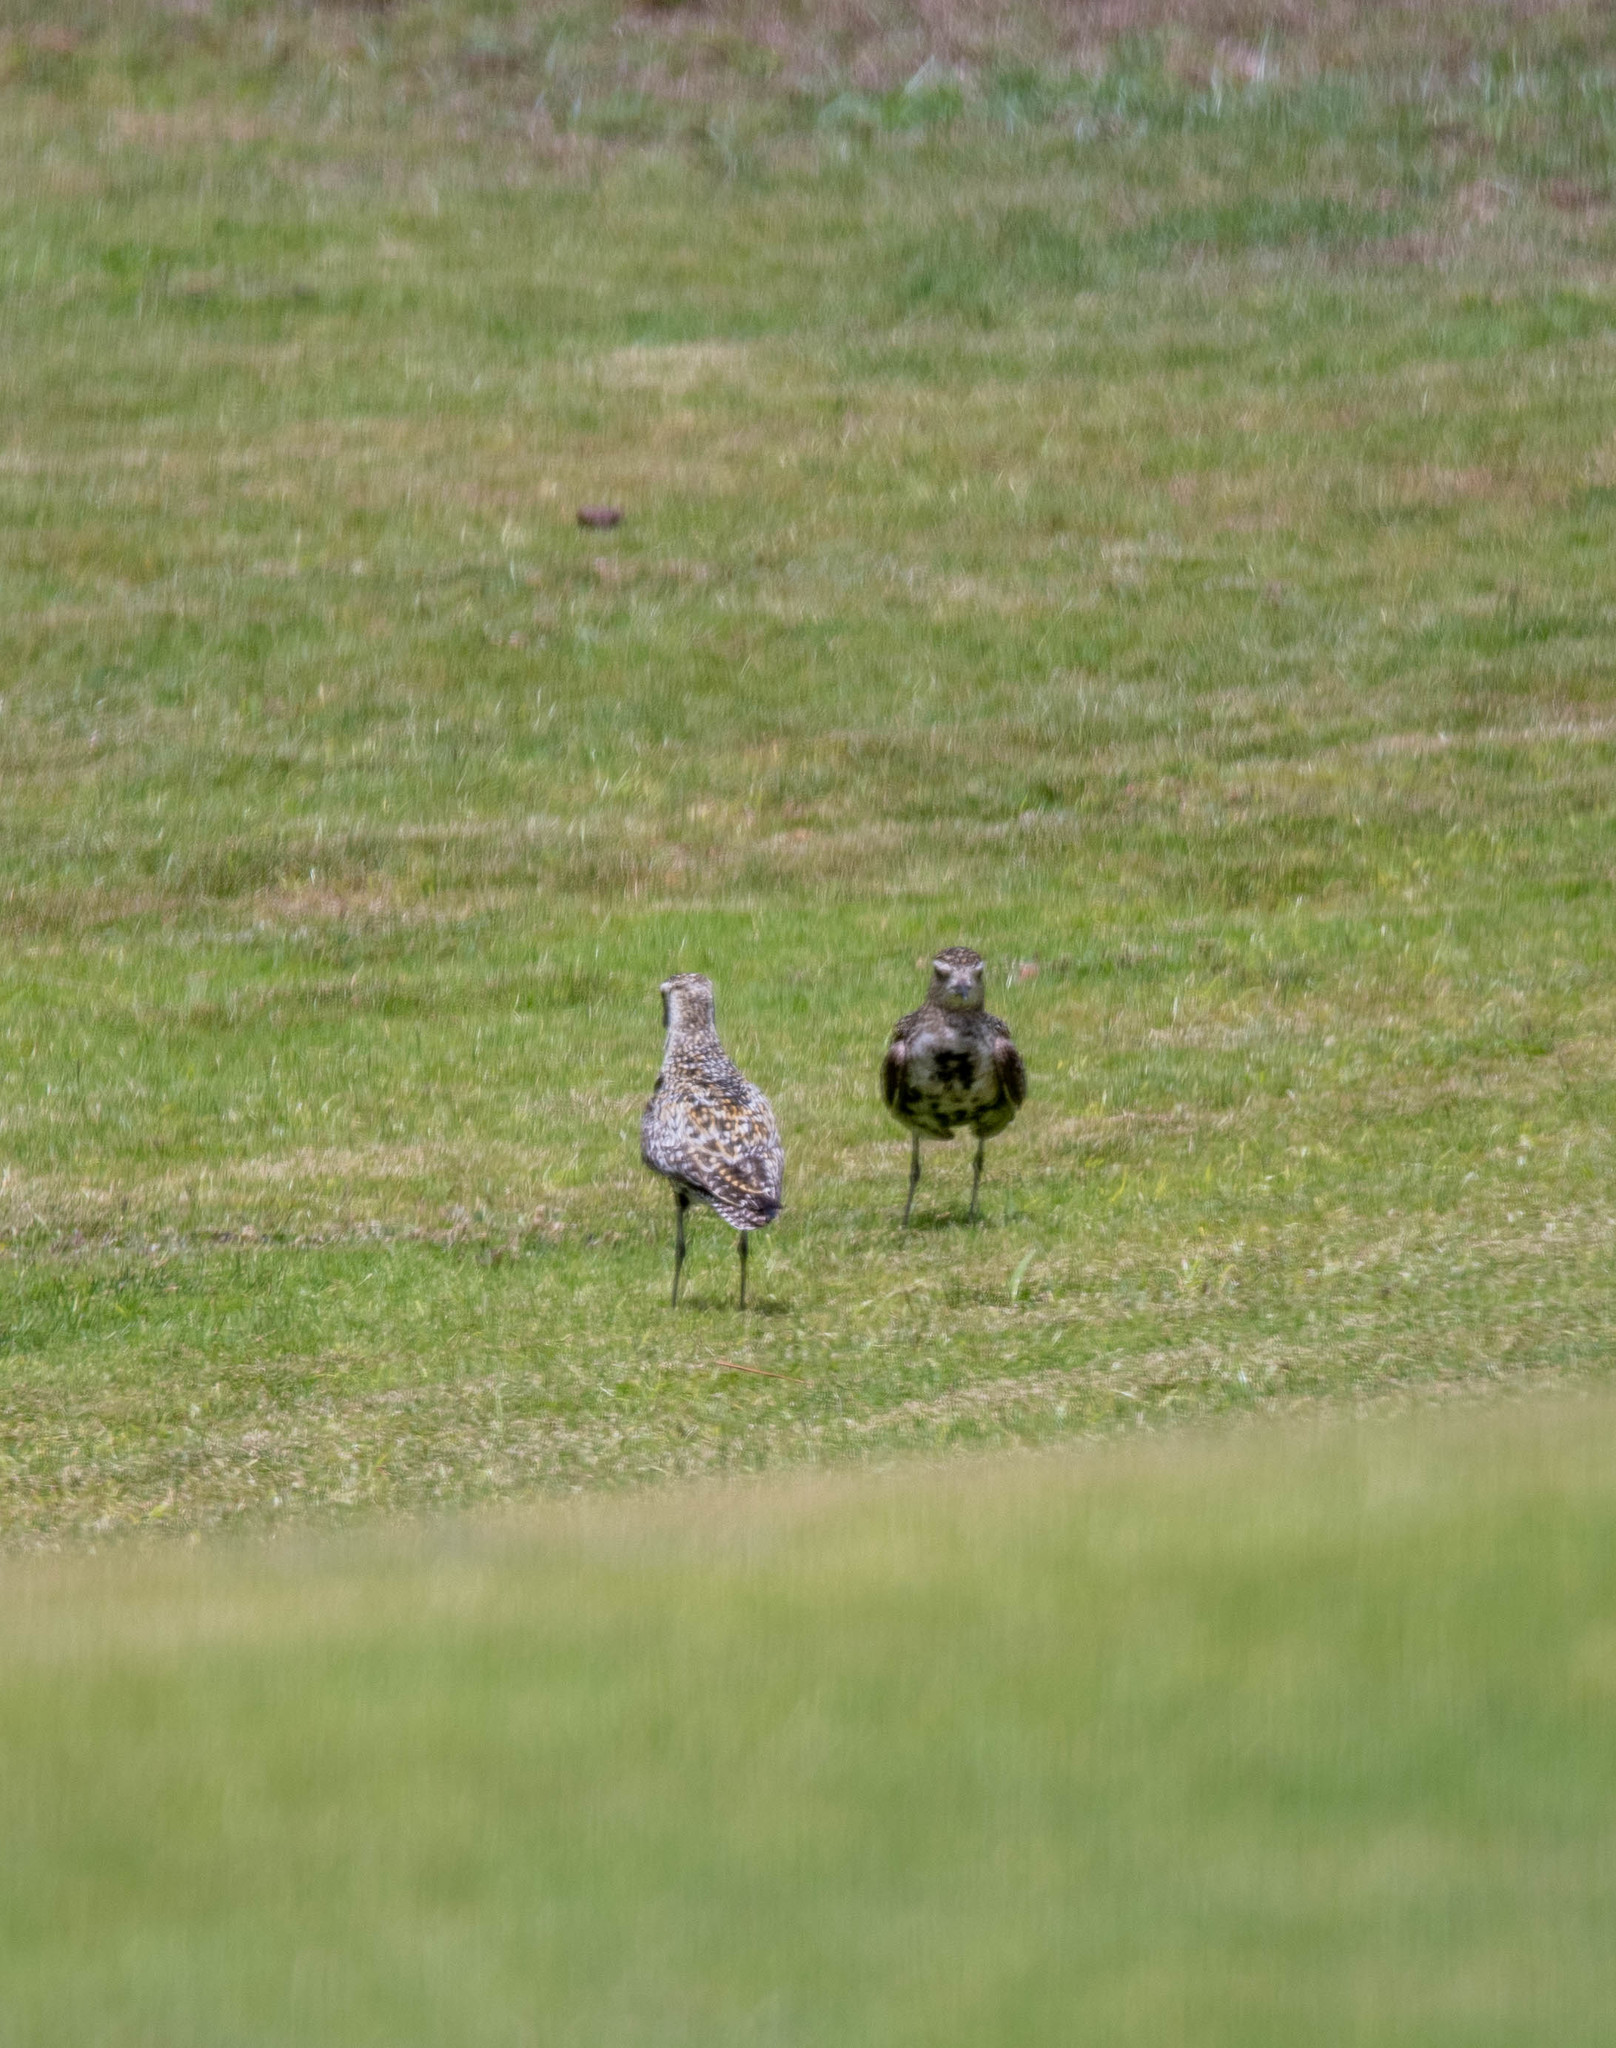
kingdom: Animalia
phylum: Chordata
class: Aves
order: Charadriiformes
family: Charadriidae
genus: Pluvialis
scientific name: Pluvialis fulva
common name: Pacific golden plover
